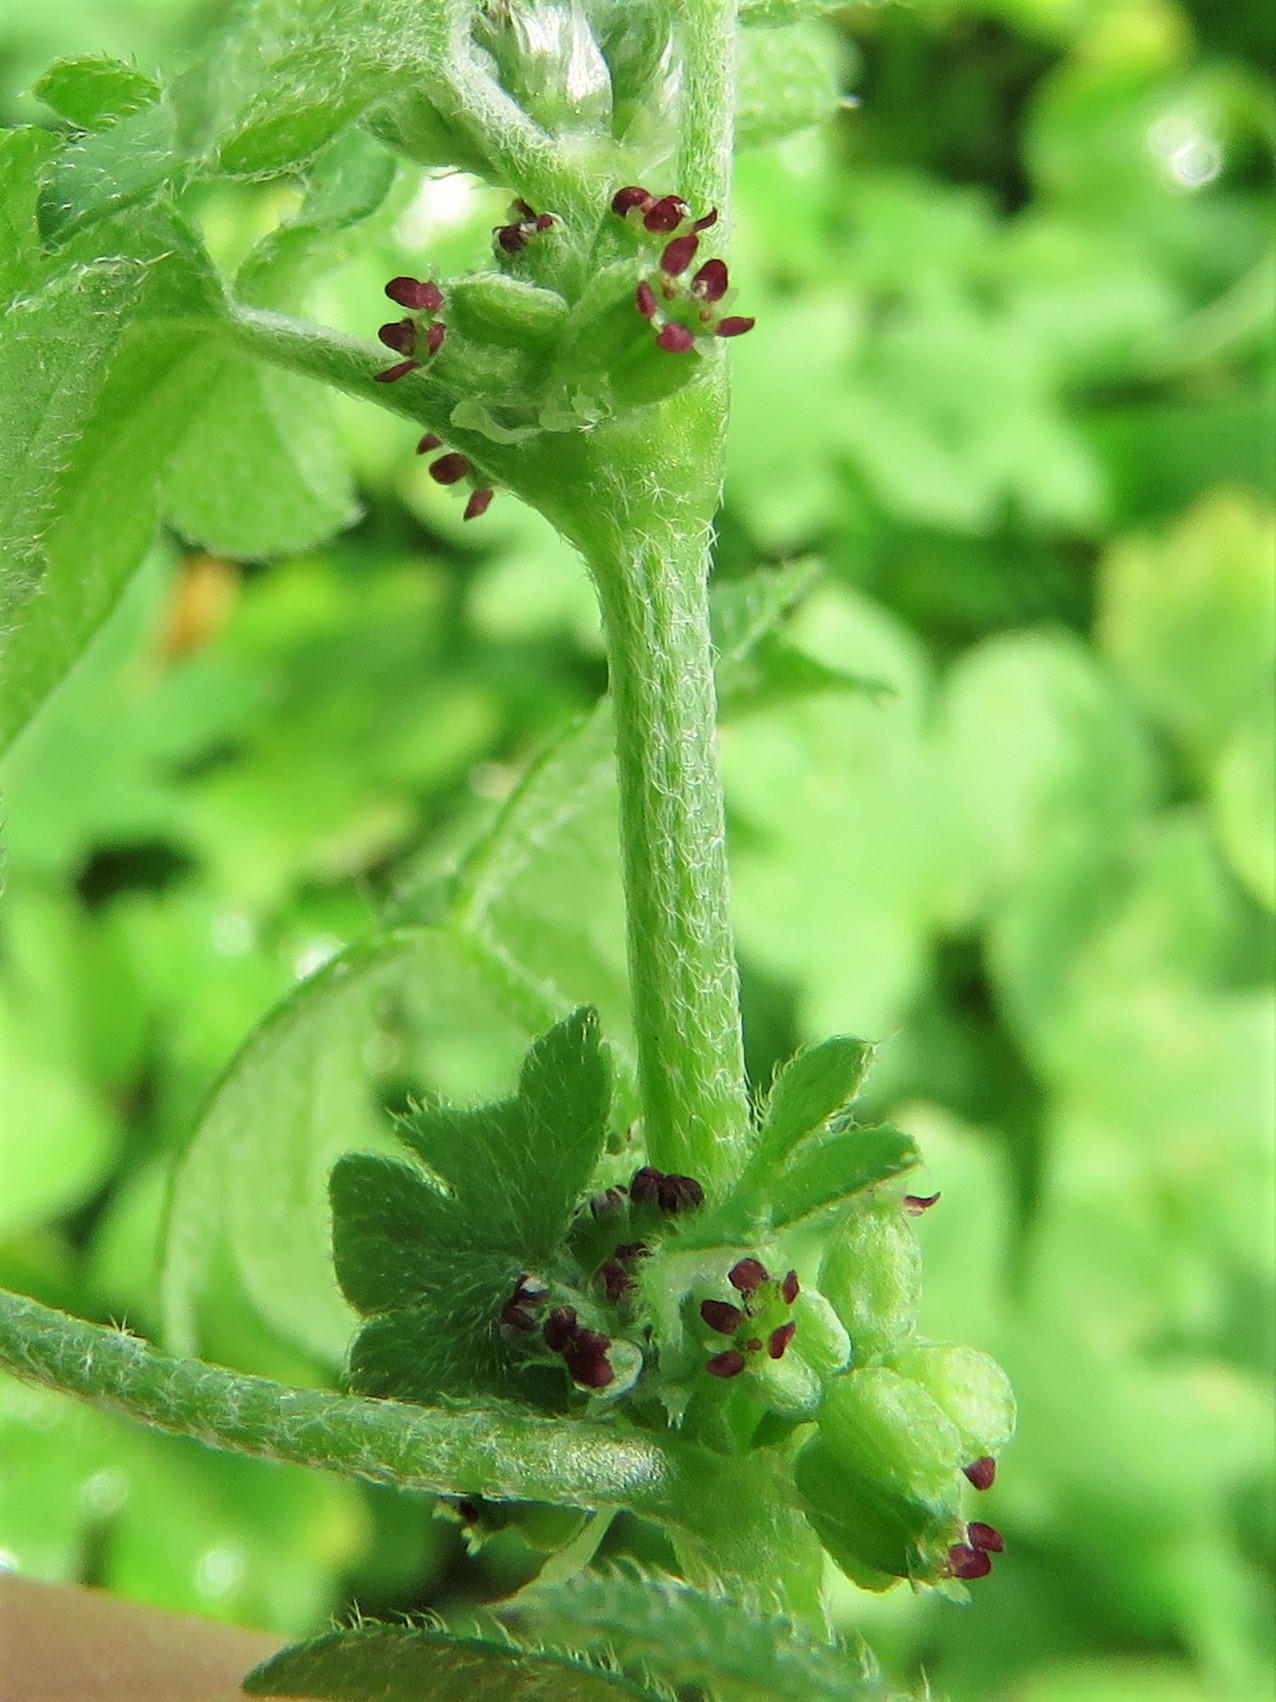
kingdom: Plantae
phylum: Tracheophyta
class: Magnoliopsida
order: Apiales
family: Apiaceae
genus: Bowlesia
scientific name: Bowlesia incana
